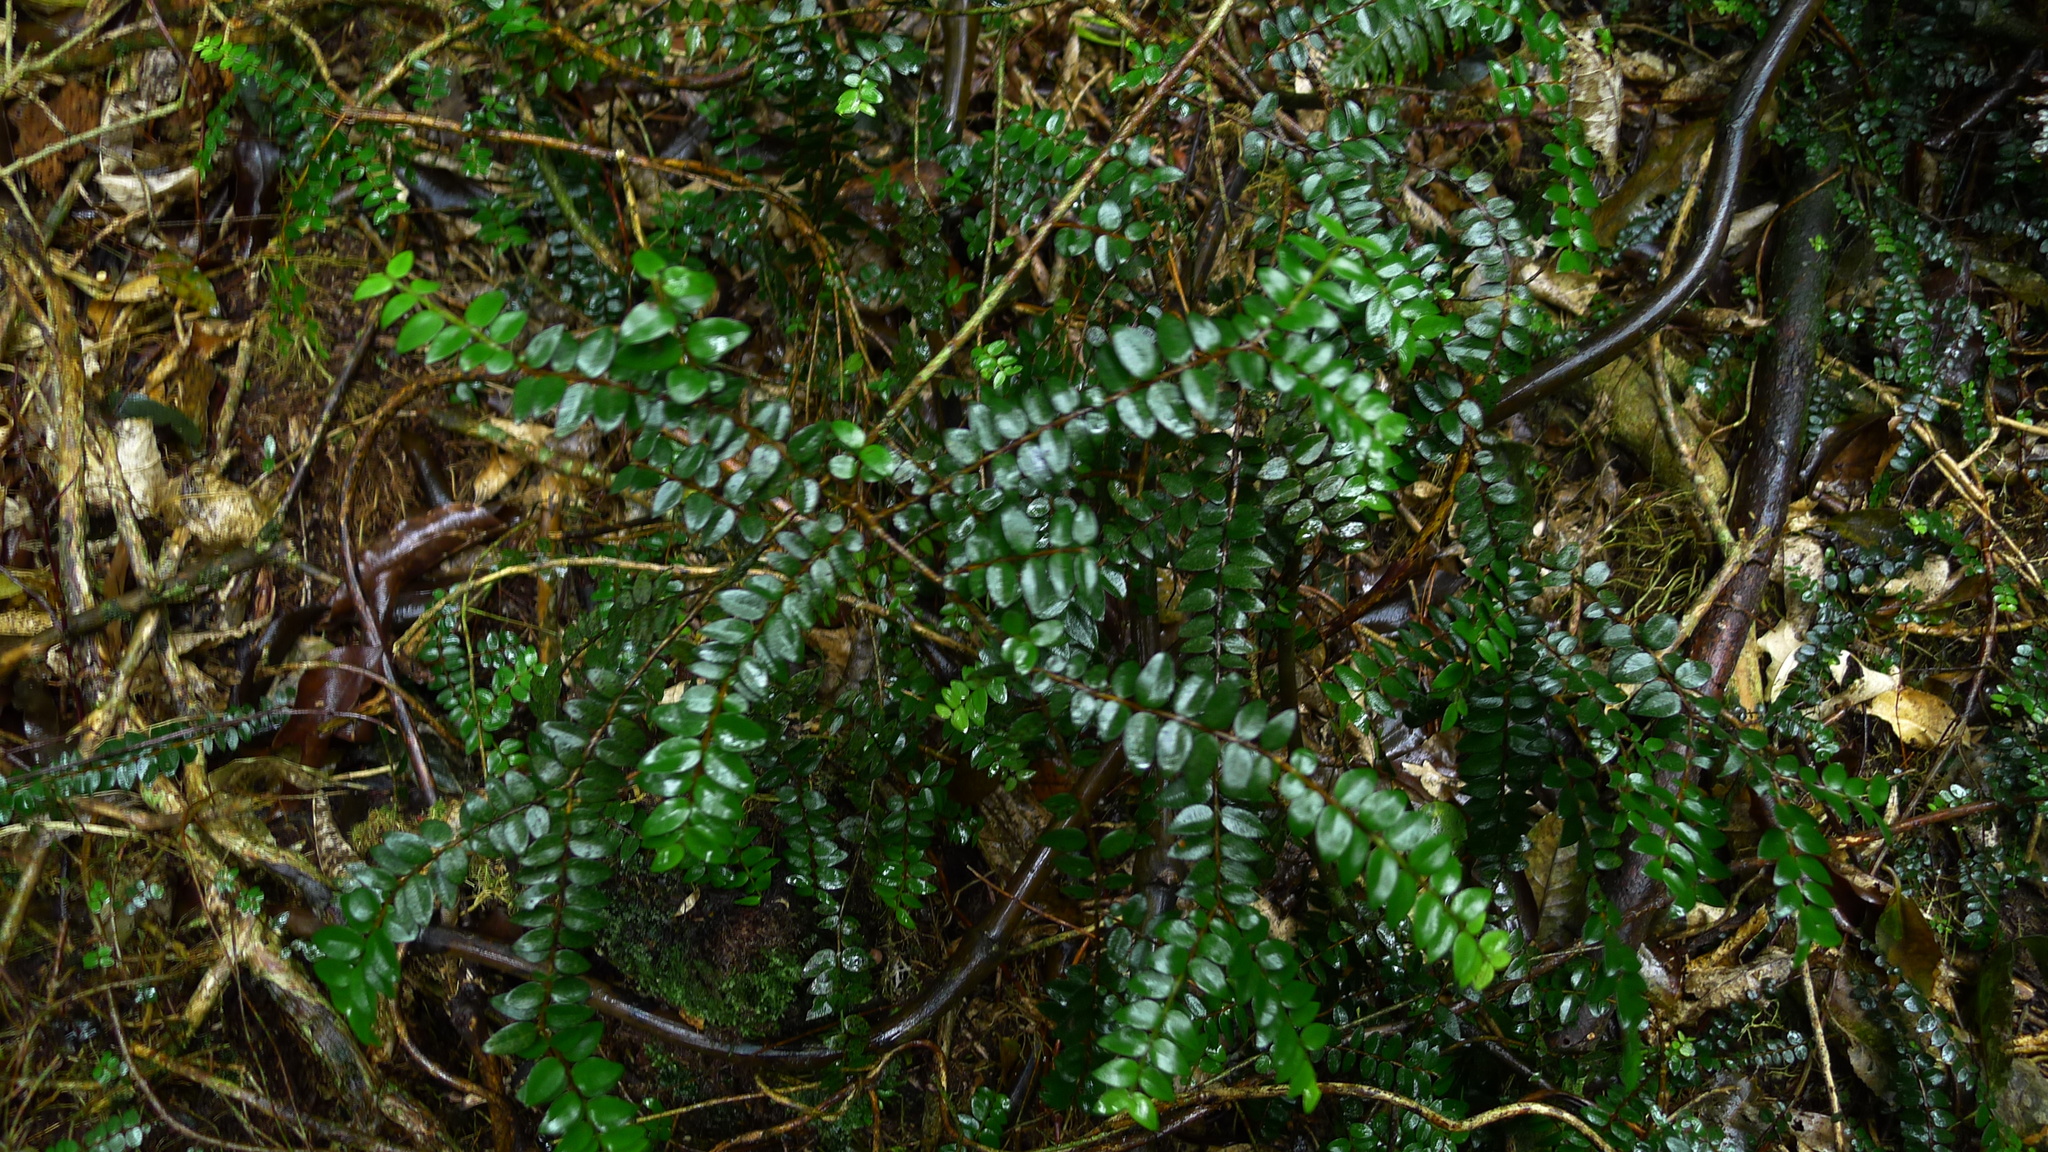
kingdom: Plantae
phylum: Tracheophyta
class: Magnoliopsida
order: Myrtales
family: Myrtaceae
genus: Metrosideros
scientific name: Metrosideros diffusa
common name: Small ratavine
